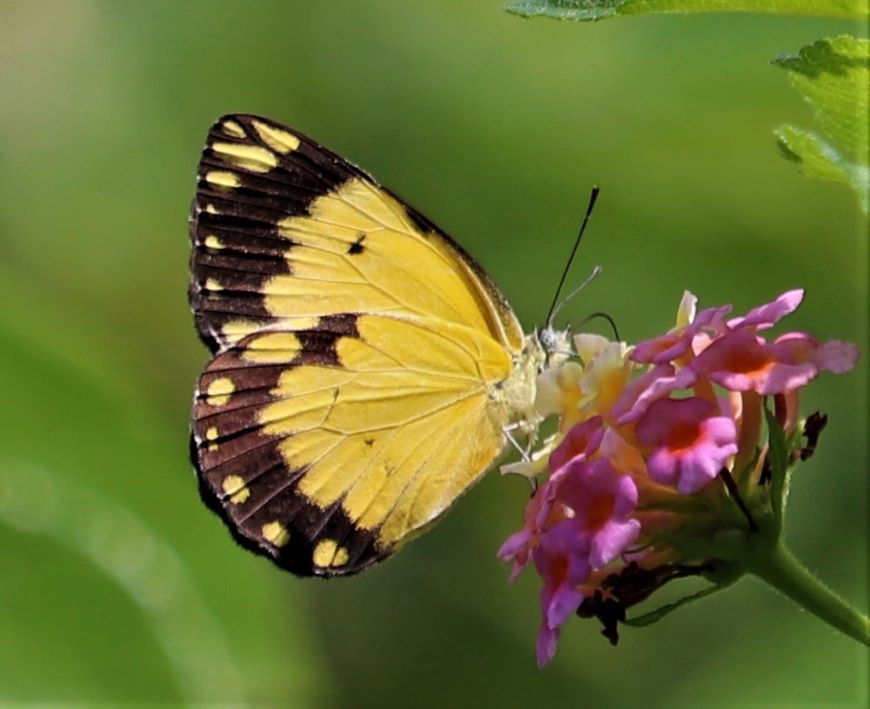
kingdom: Animalia
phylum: Arthropoda
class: Insecta
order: Lepidoptera
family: Pieridae
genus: Belenois
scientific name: Belenois creona
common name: African caper white
